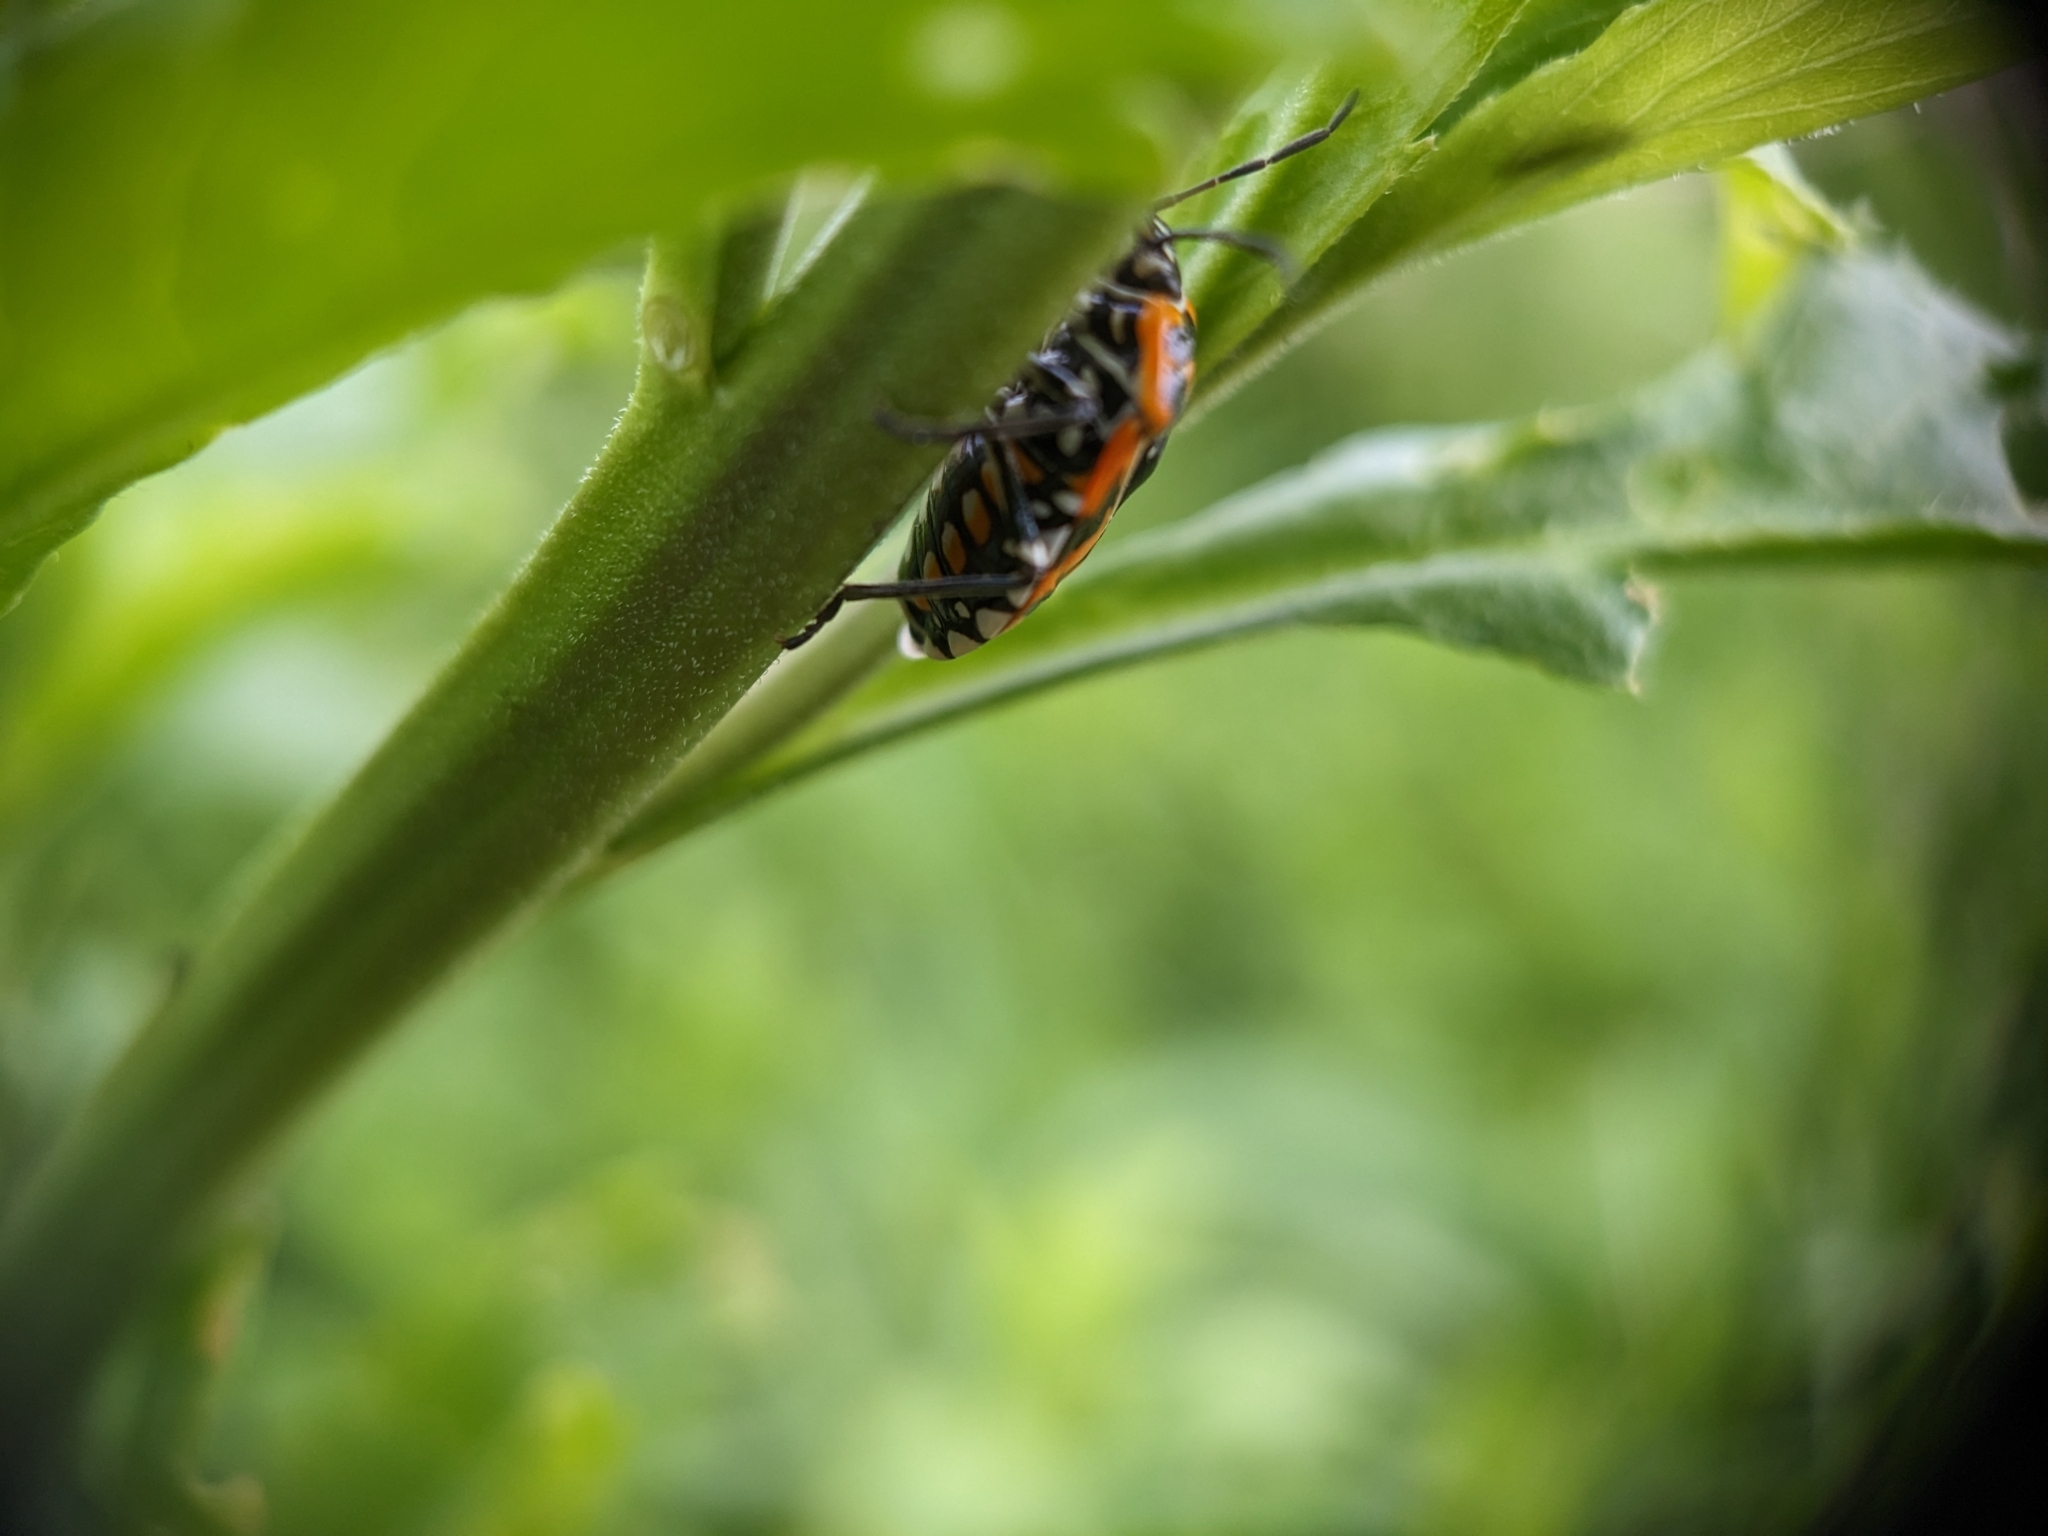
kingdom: Animalia
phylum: Arthropoda
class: Insecta
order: Hemiptera
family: Pentatomidae
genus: Murgantia
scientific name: Murgantia histrionica
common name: Harlequin bug
